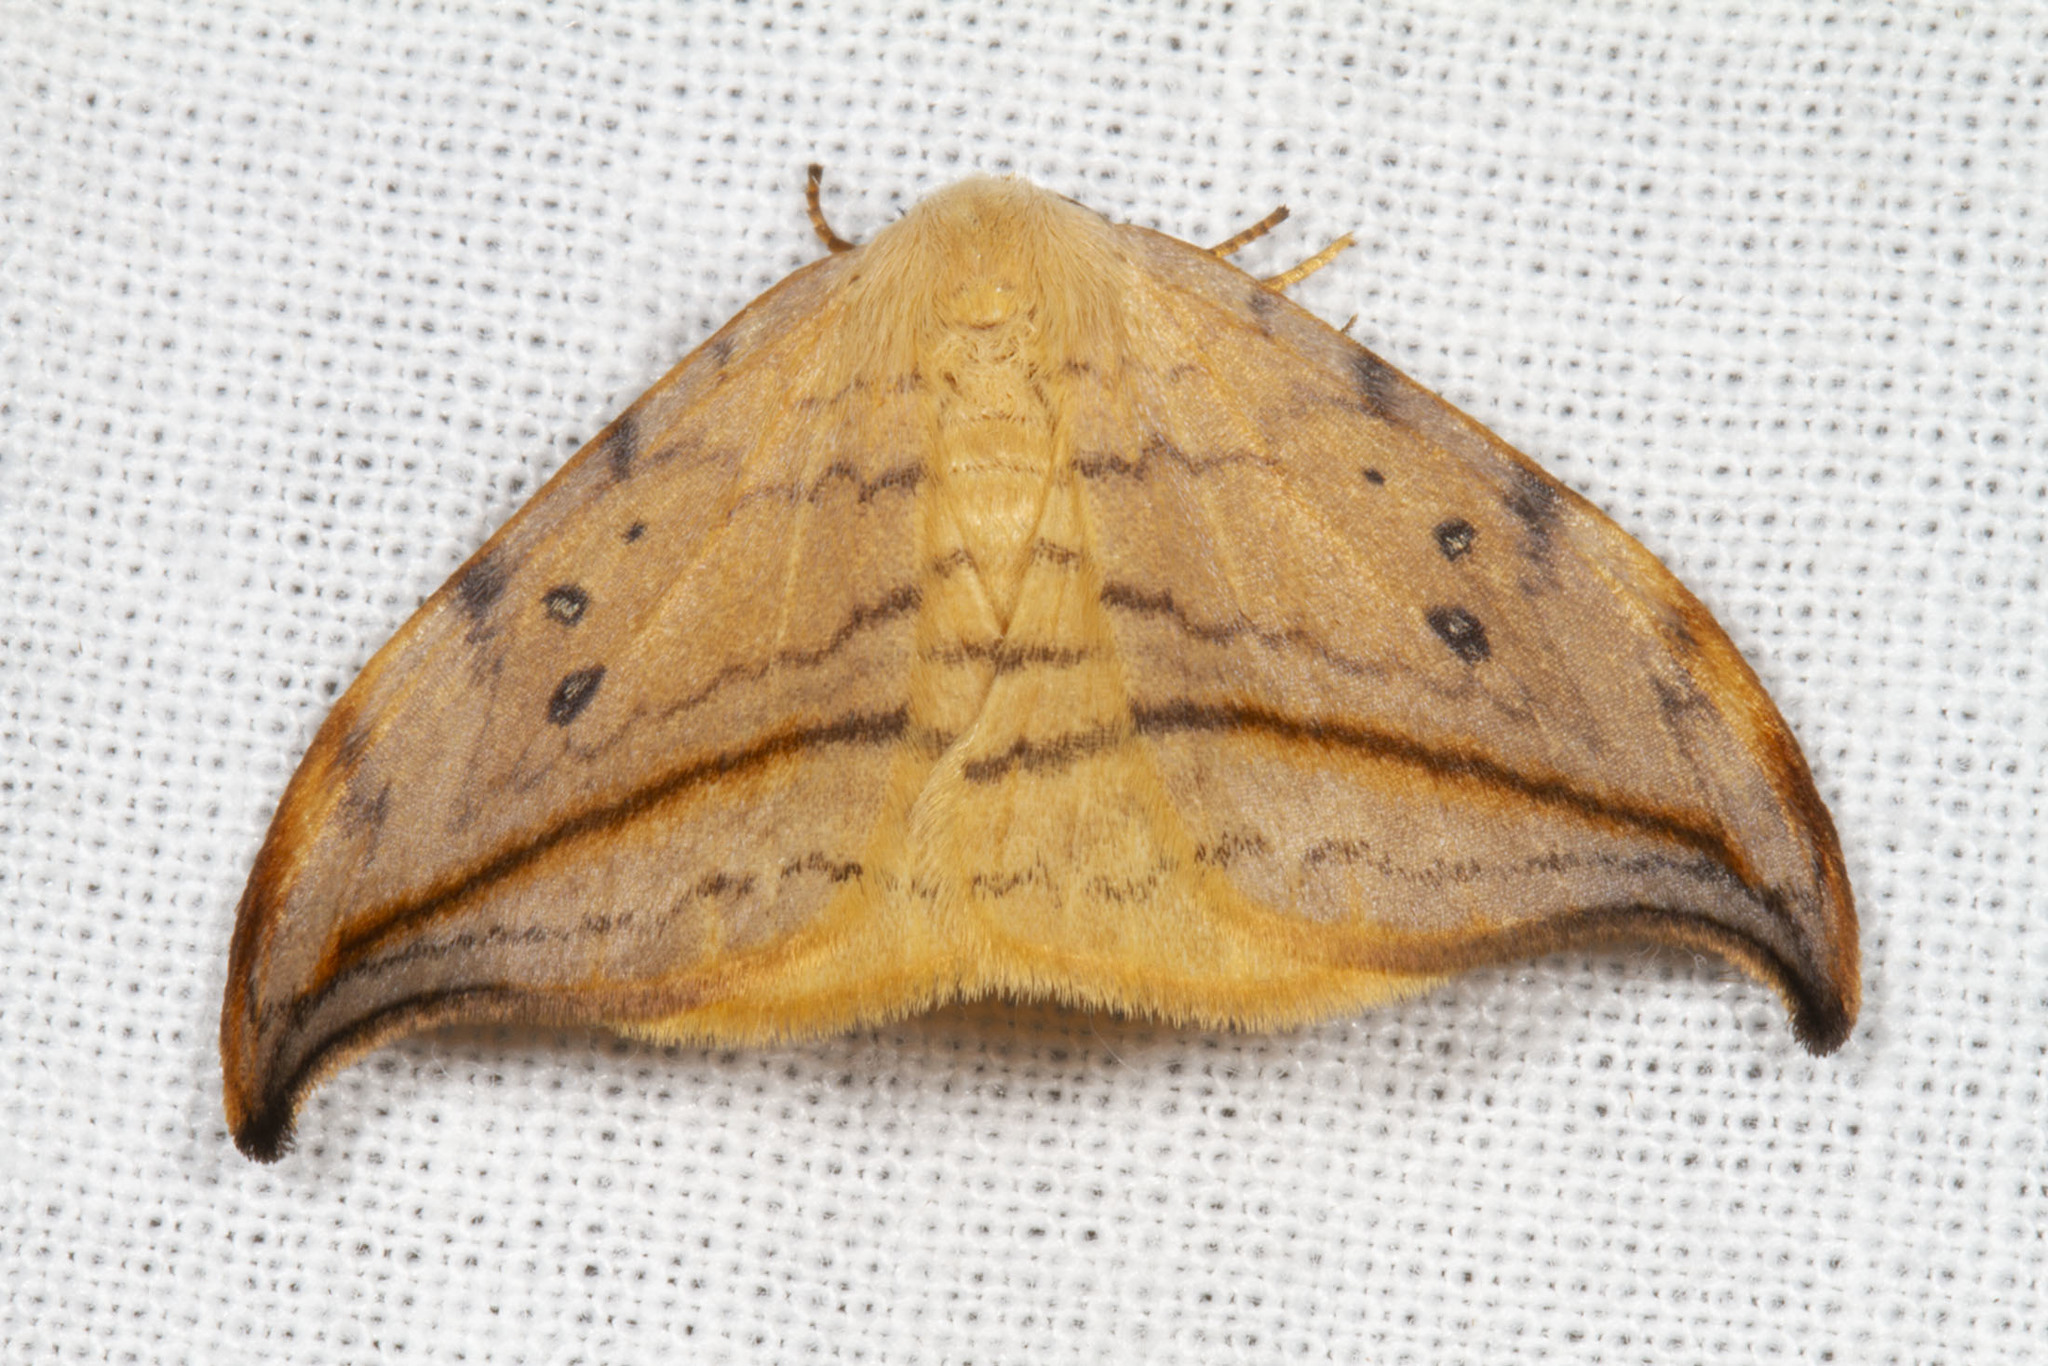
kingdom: Animalia
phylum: Arthropoda
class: Insecta
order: Lepidoptera
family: Drepanidae
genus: Drepana
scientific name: Drepana arcuata
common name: Arched hooktip moth
